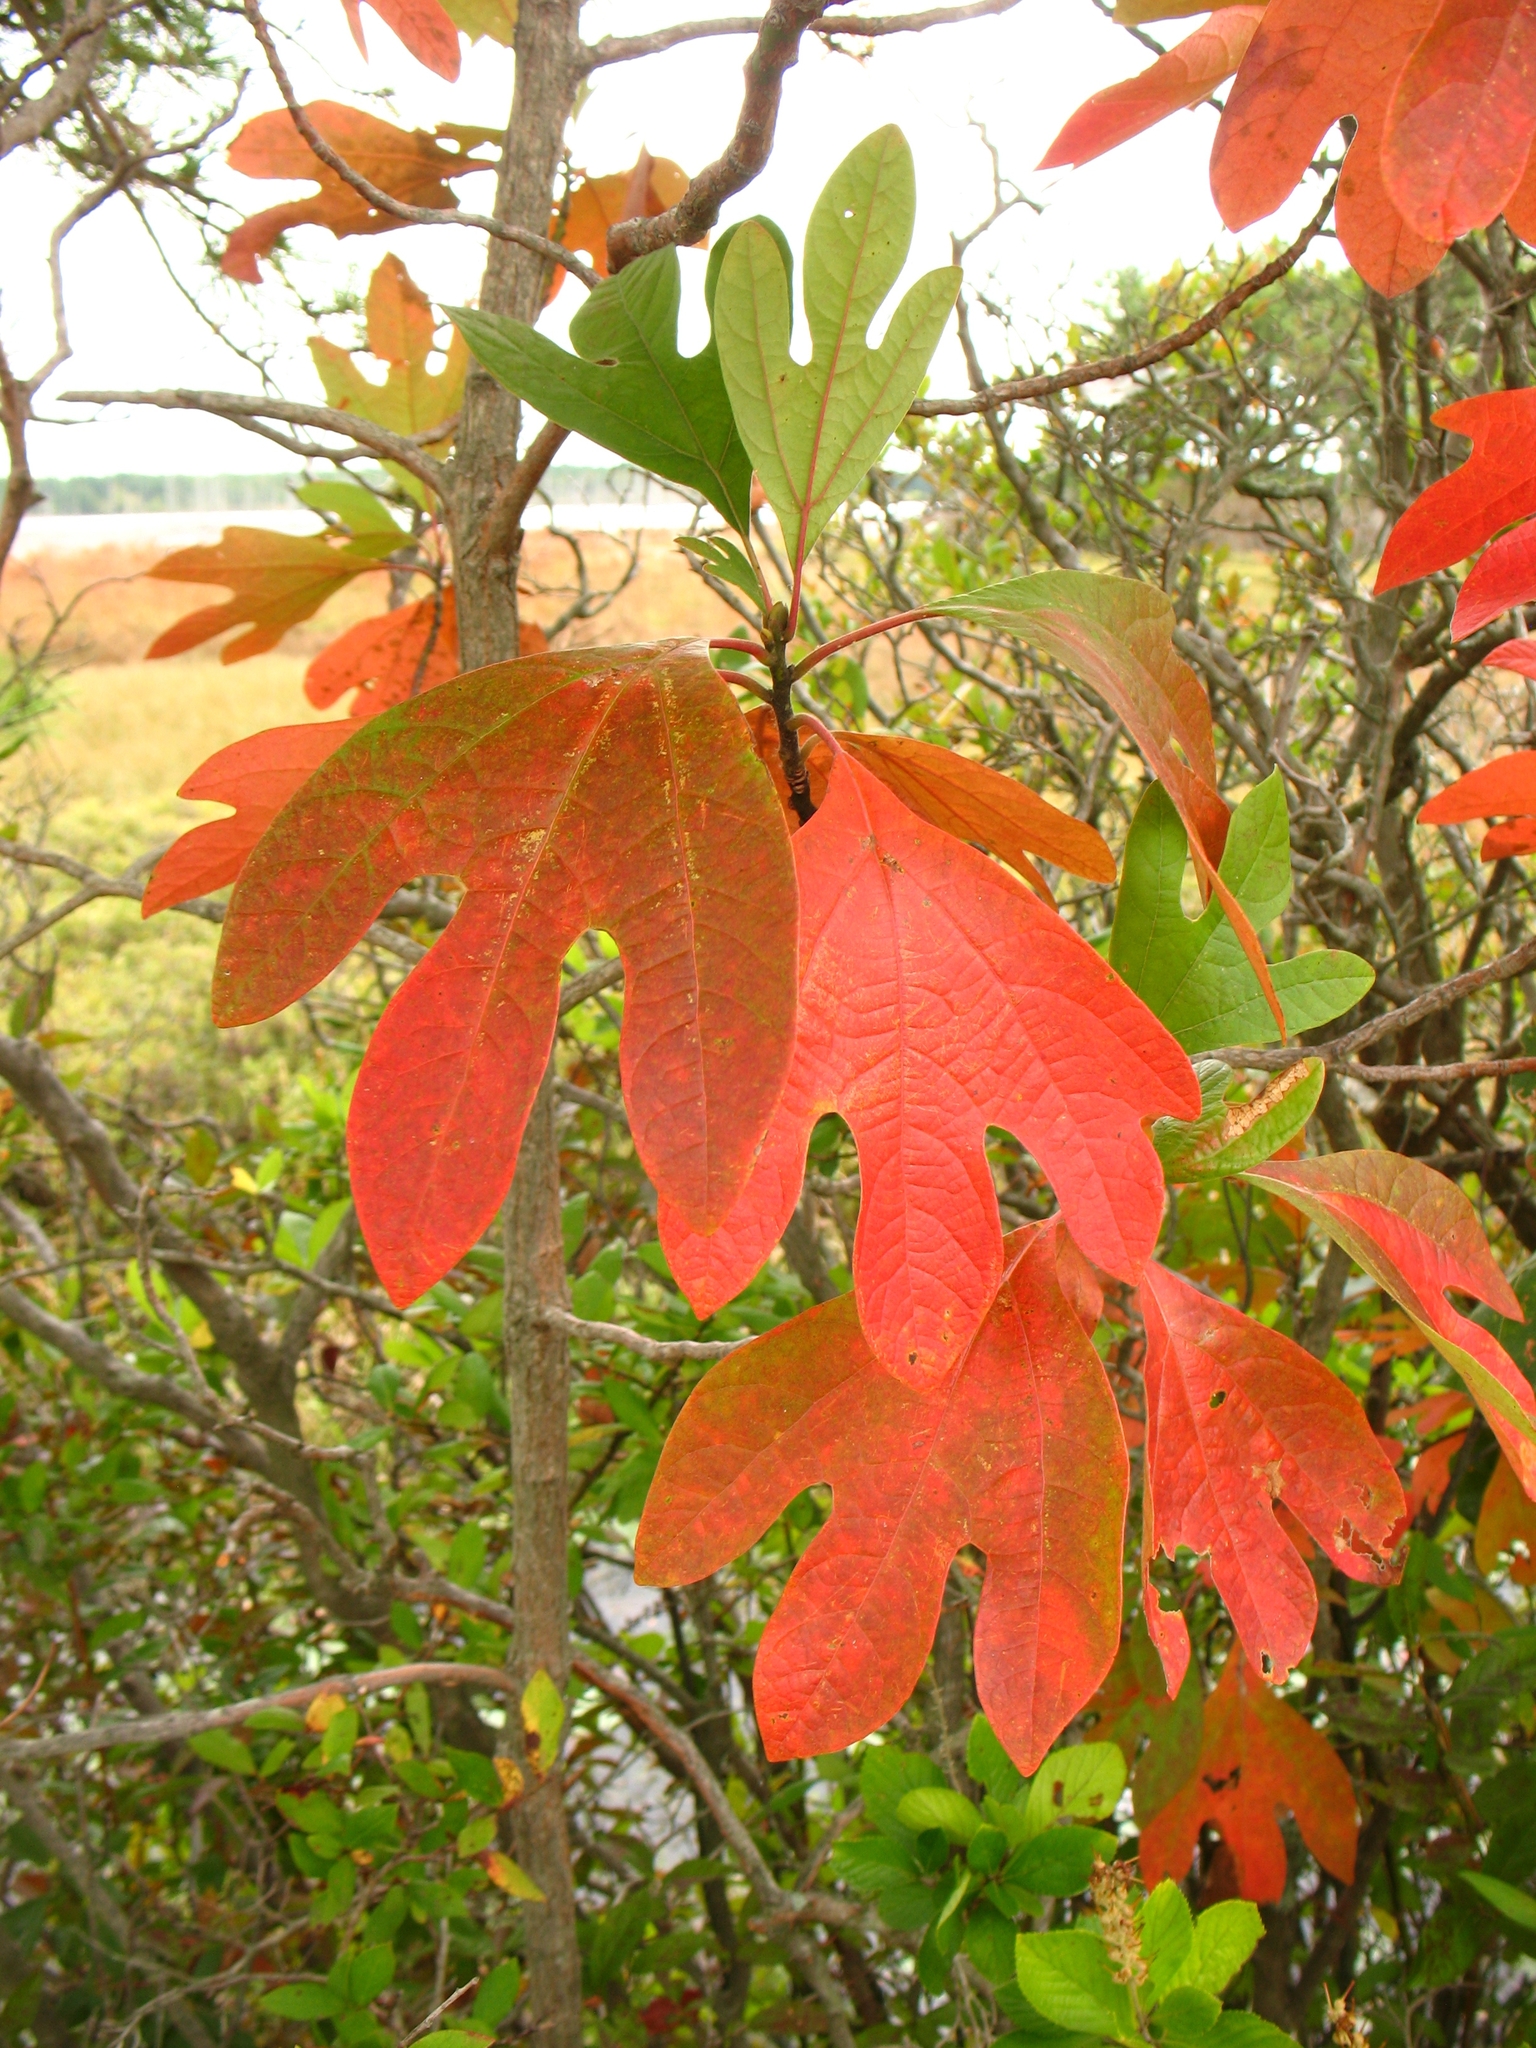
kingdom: Plantae
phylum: Tracheophyta
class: Magnoliopsida
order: Laurales
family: Lauraceae
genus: Sassafras
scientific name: Sassafras albidum
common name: Sassafras
